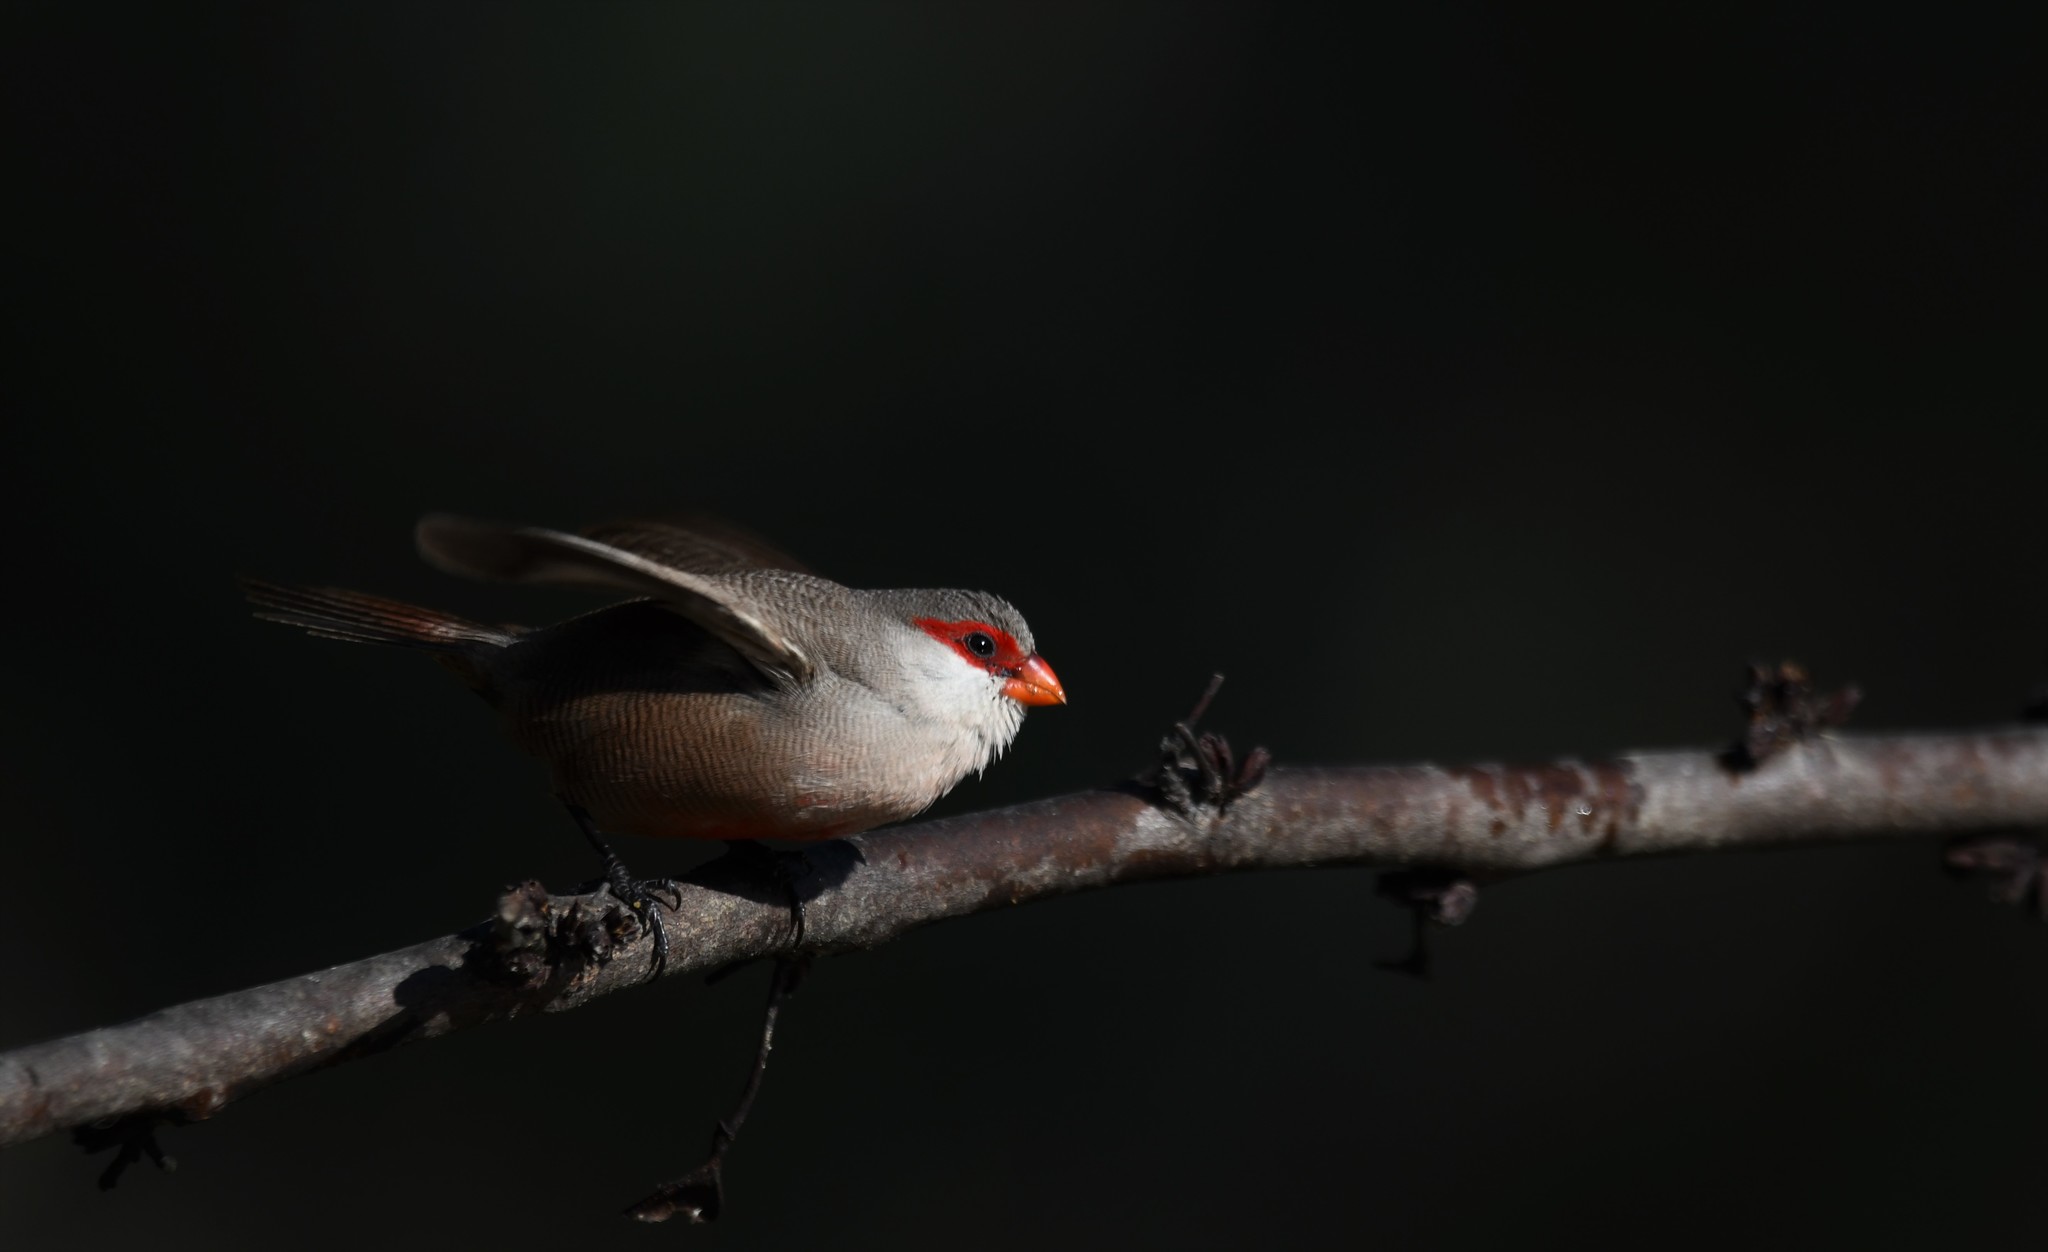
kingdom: Animalia
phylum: Chordata
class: Aves
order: Passeriformes
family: Estrildidae
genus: Estrilda
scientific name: Estrilda astrild
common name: Common waxbill
